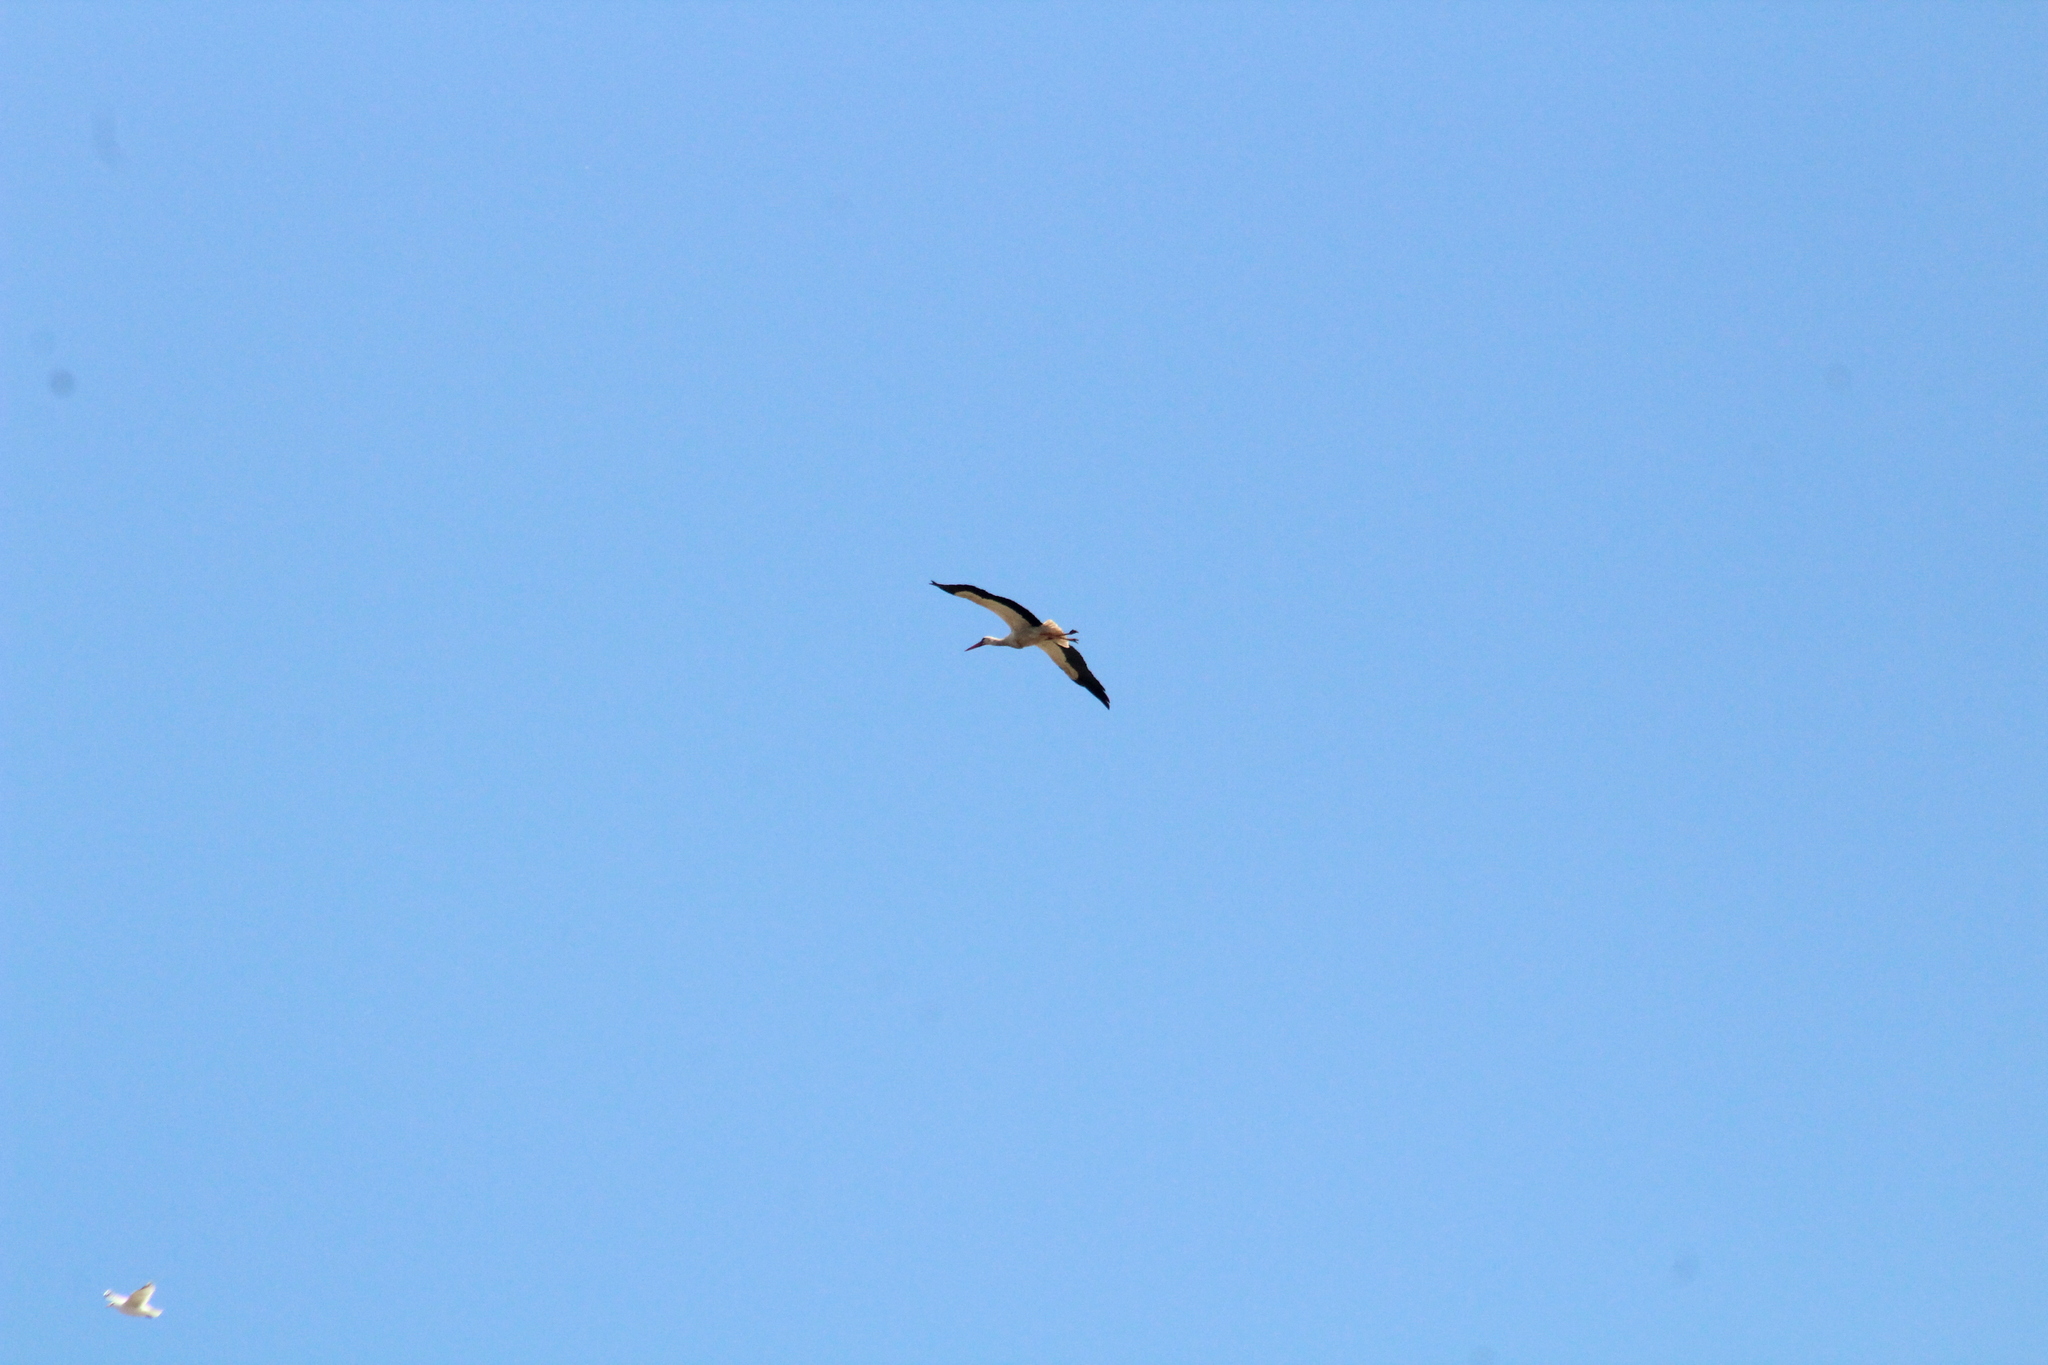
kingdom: Animalia
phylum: Chordata
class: Aves
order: Ciconiiformes
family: Ciconiidae
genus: Ciconia
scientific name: Ciconia ciconia
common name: White stork
